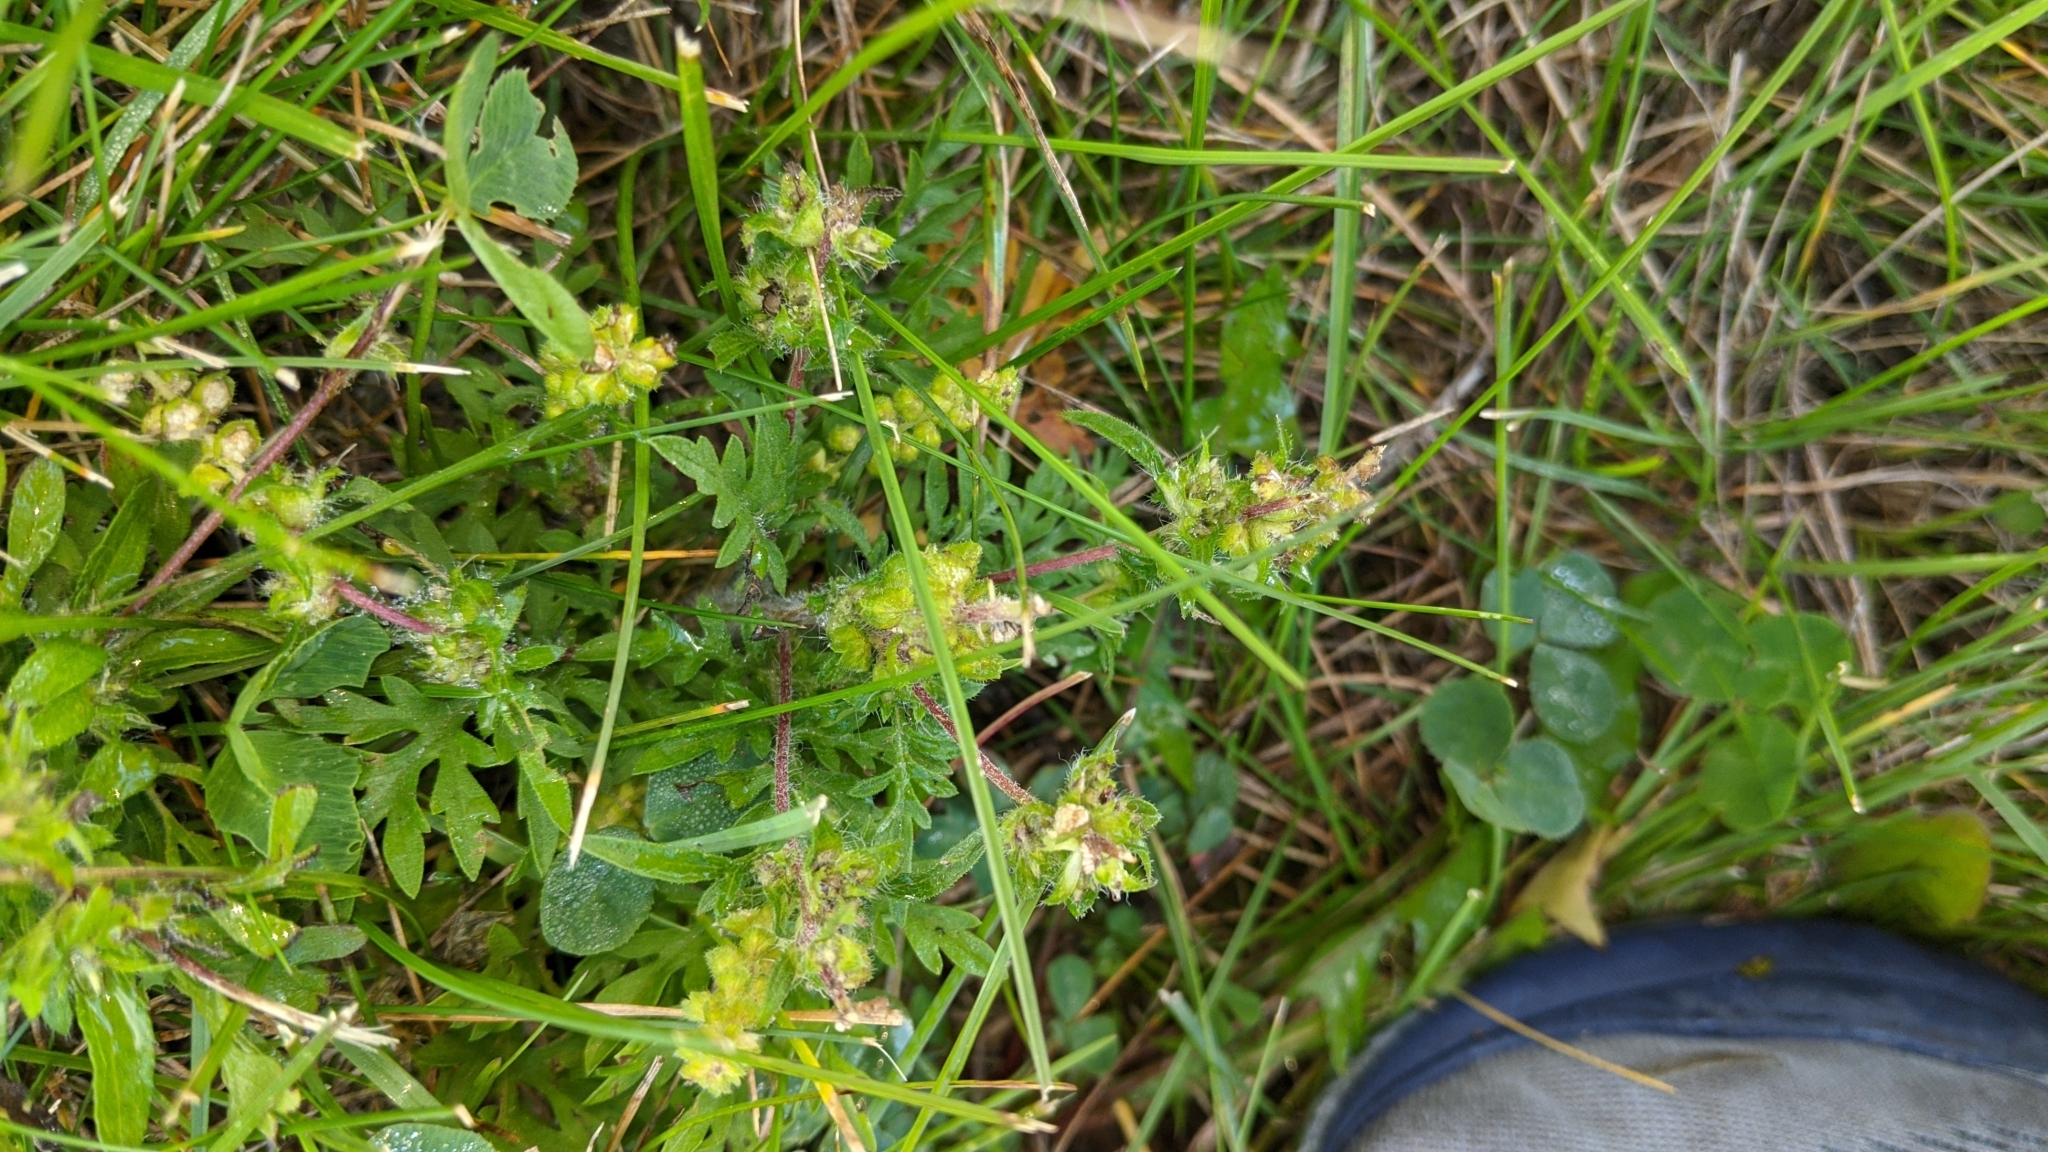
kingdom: Plantae
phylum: Tracheophyta
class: Magnoliopsida
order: Asterales
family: Asteraceae
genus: Ambrosia
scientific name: Ambrosia artemisiifolia
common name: Annual ragweed
